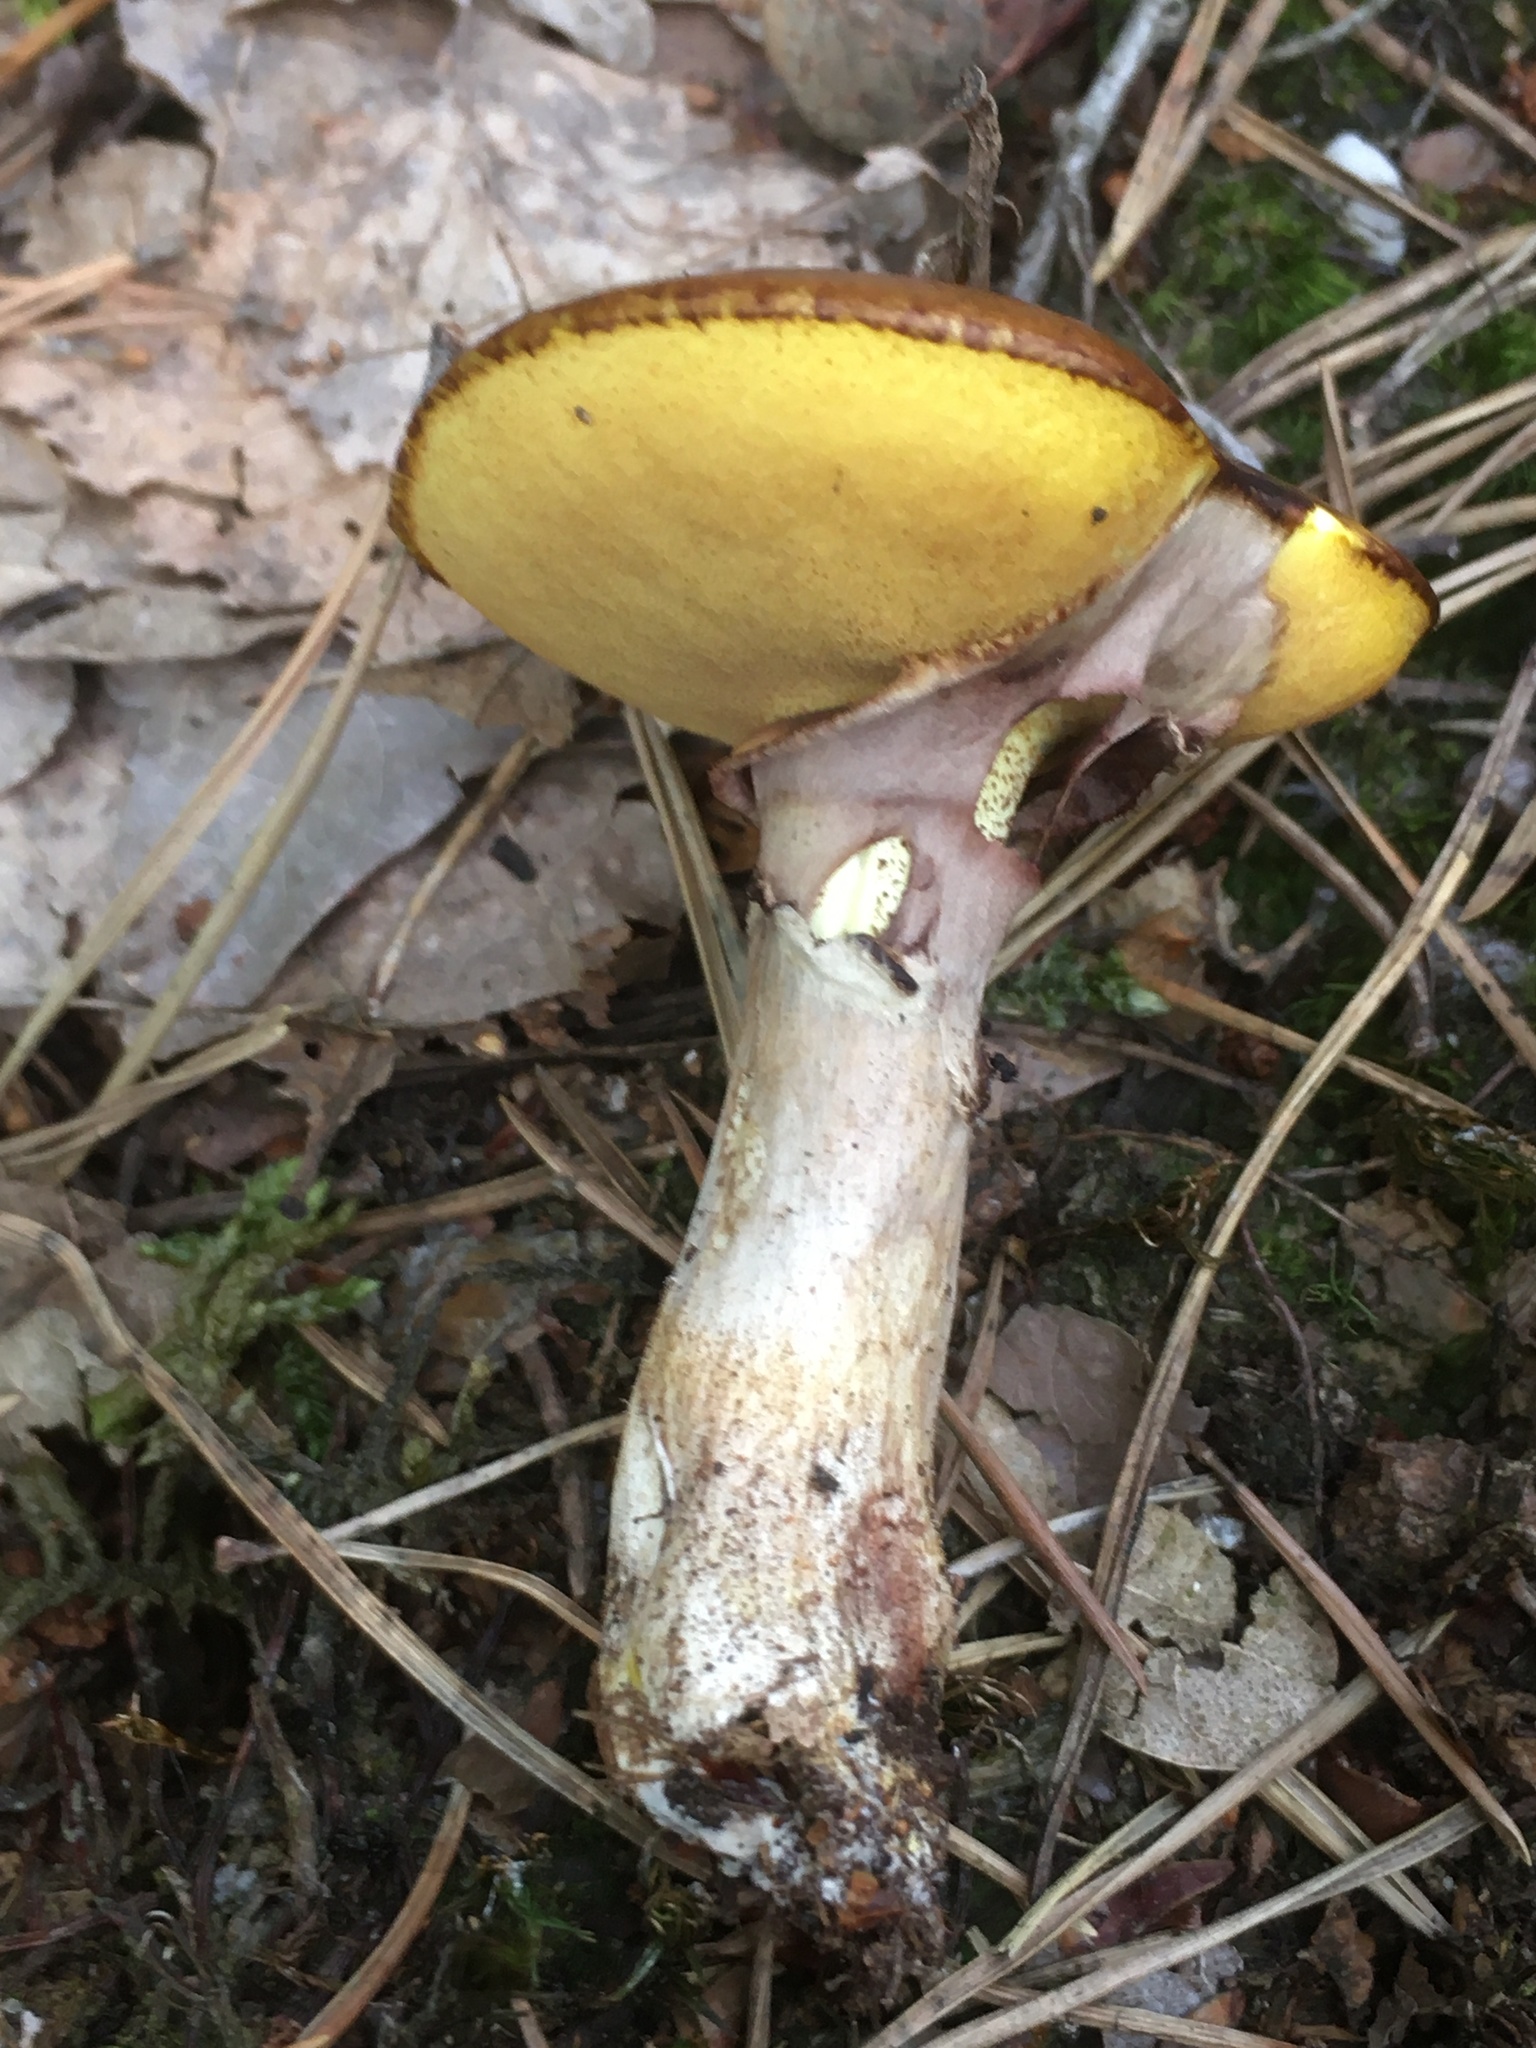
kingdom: Fungi
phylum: Basidiomycota
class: Agaricomycetes
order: Boletales
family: Suillaceae
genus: Suillus
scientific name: Suillus luteus
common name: Slippery jack
